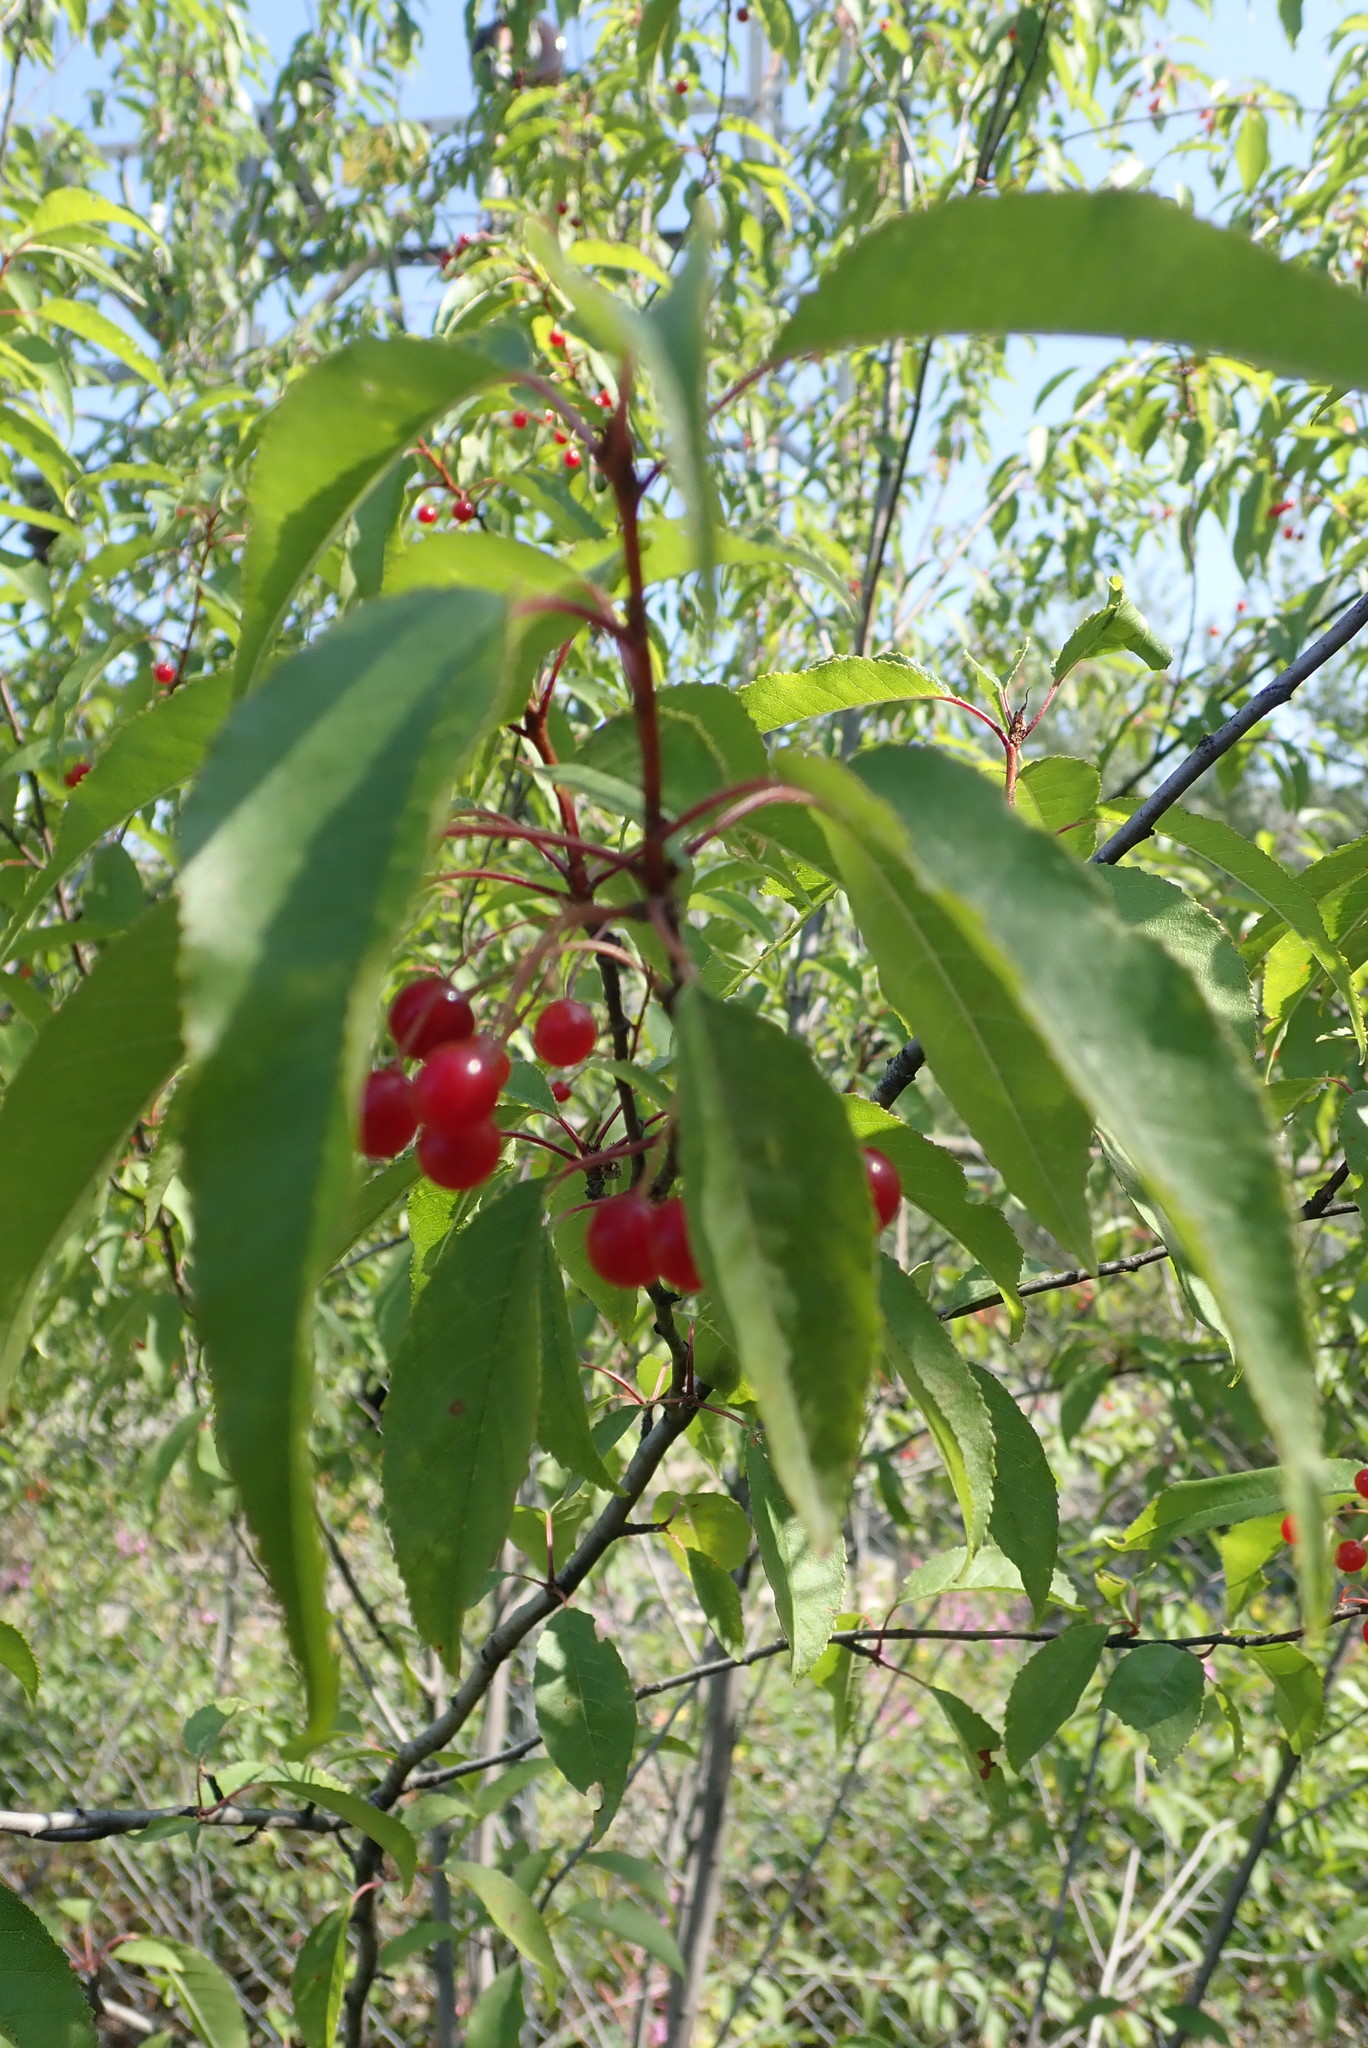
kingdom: Plantae
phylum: Tracheophyta
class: Magnoliopsida
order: Rosales
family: Rosaceae
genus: Prunus
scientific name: Prunus pensylvanica
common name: Pin cherry
